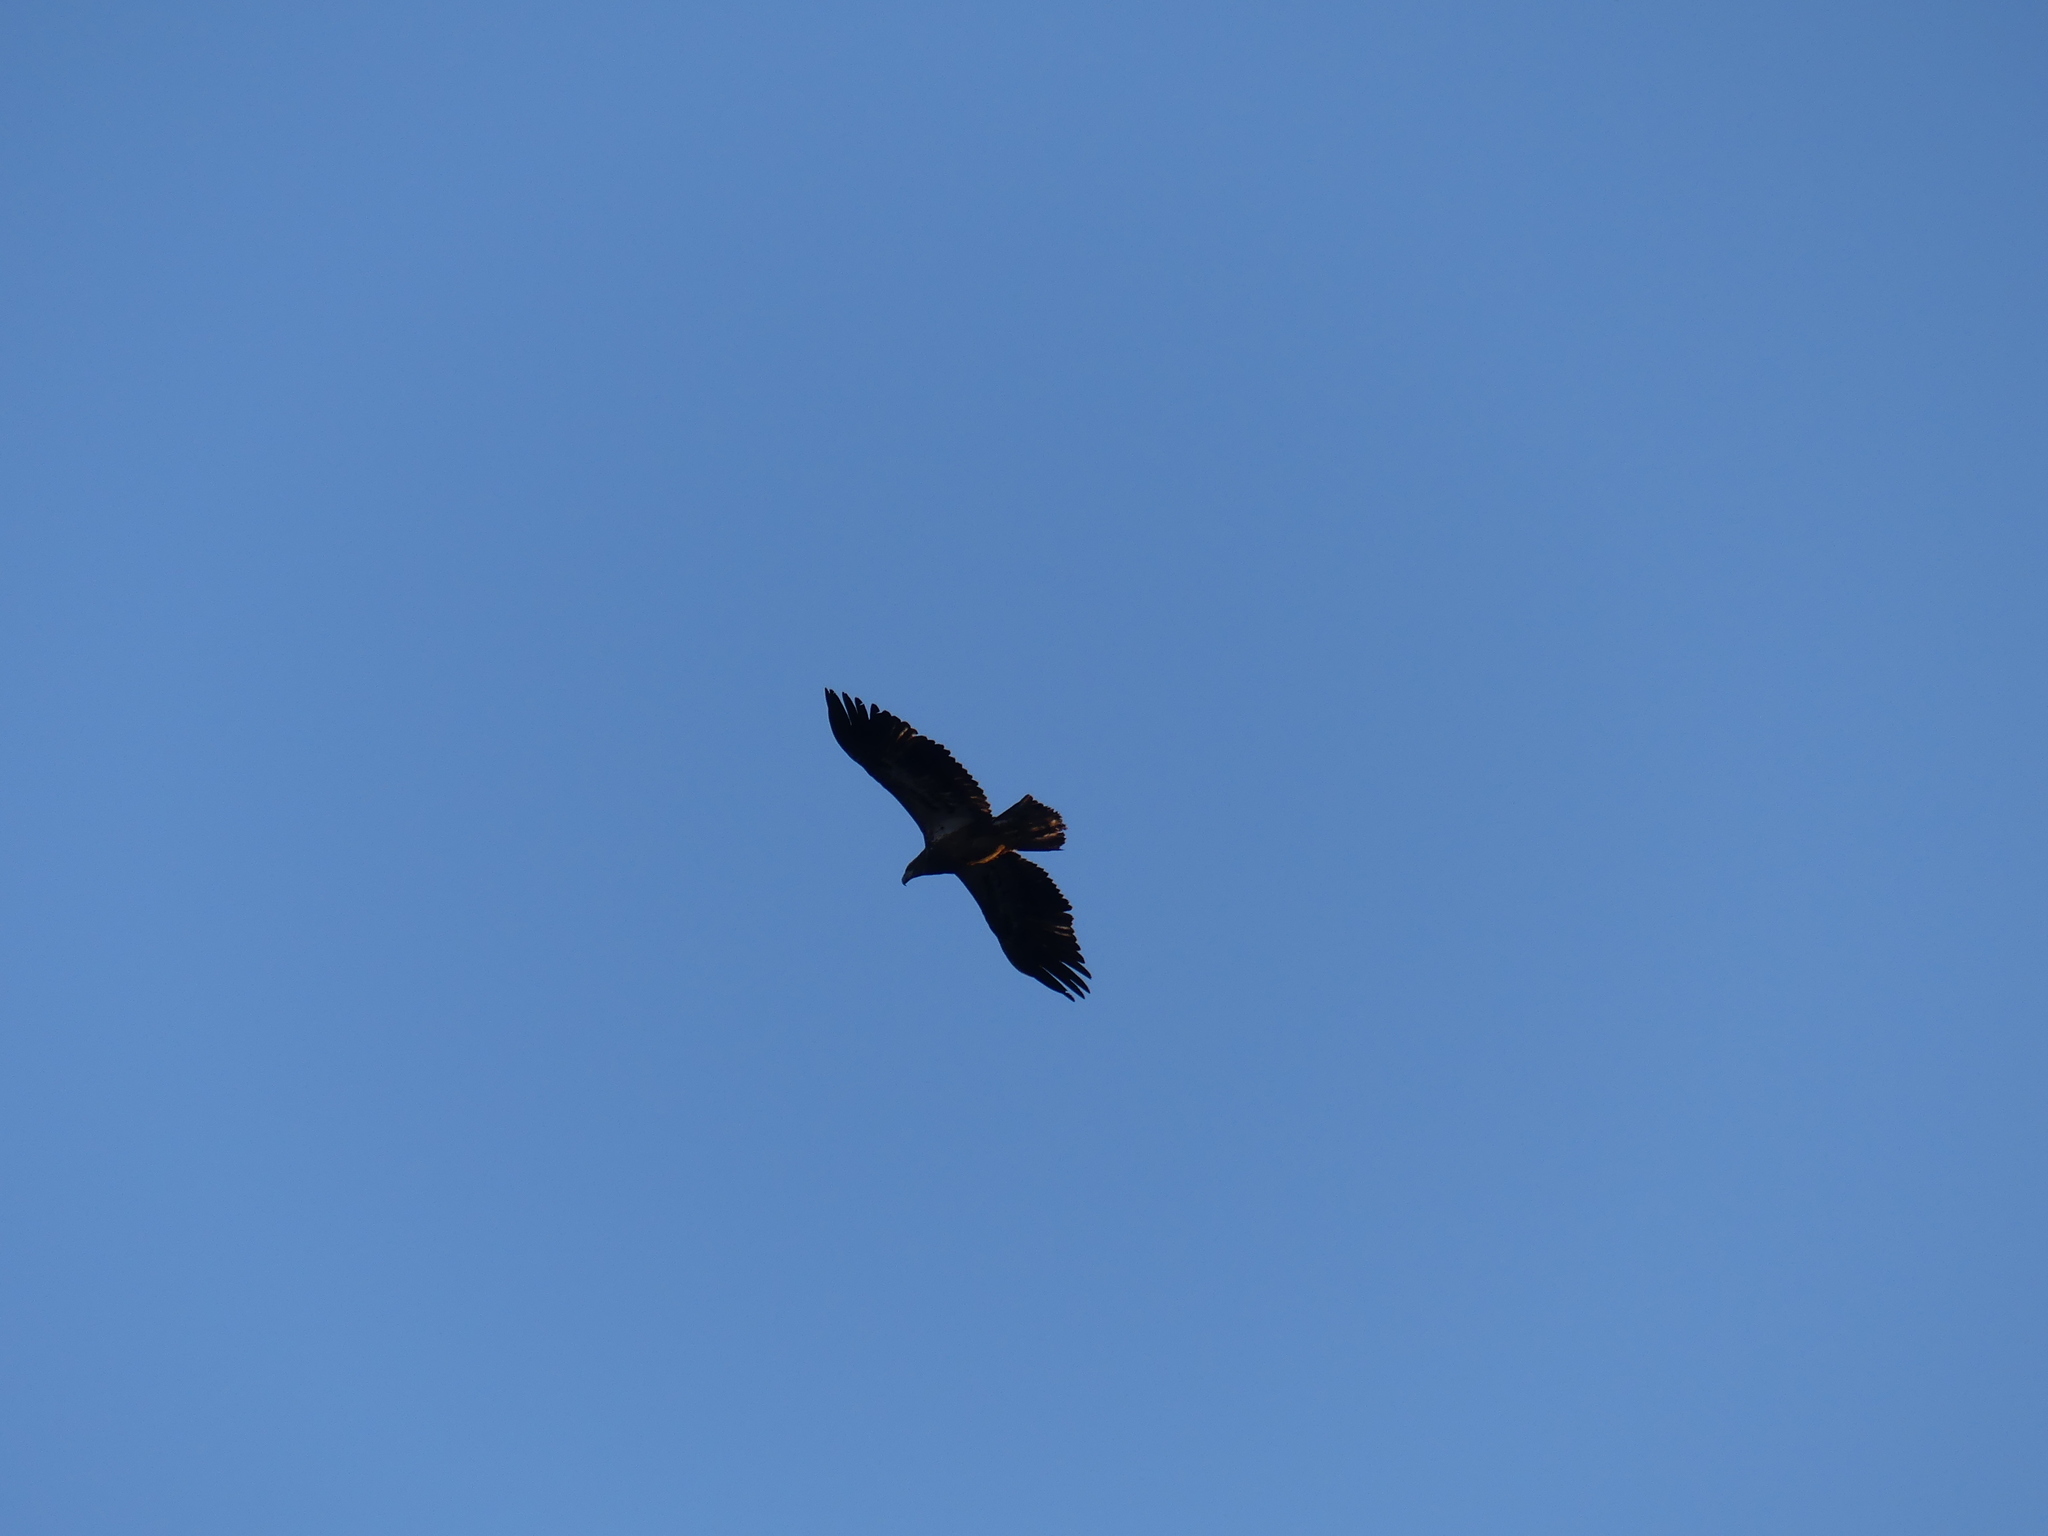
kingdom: Animalia
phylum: Chordata
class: Aves
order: Accipitriformes
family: Accipitridae
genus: Haliaeetus
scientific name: Haliaeetus leucocephalus
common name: Bald eagle
